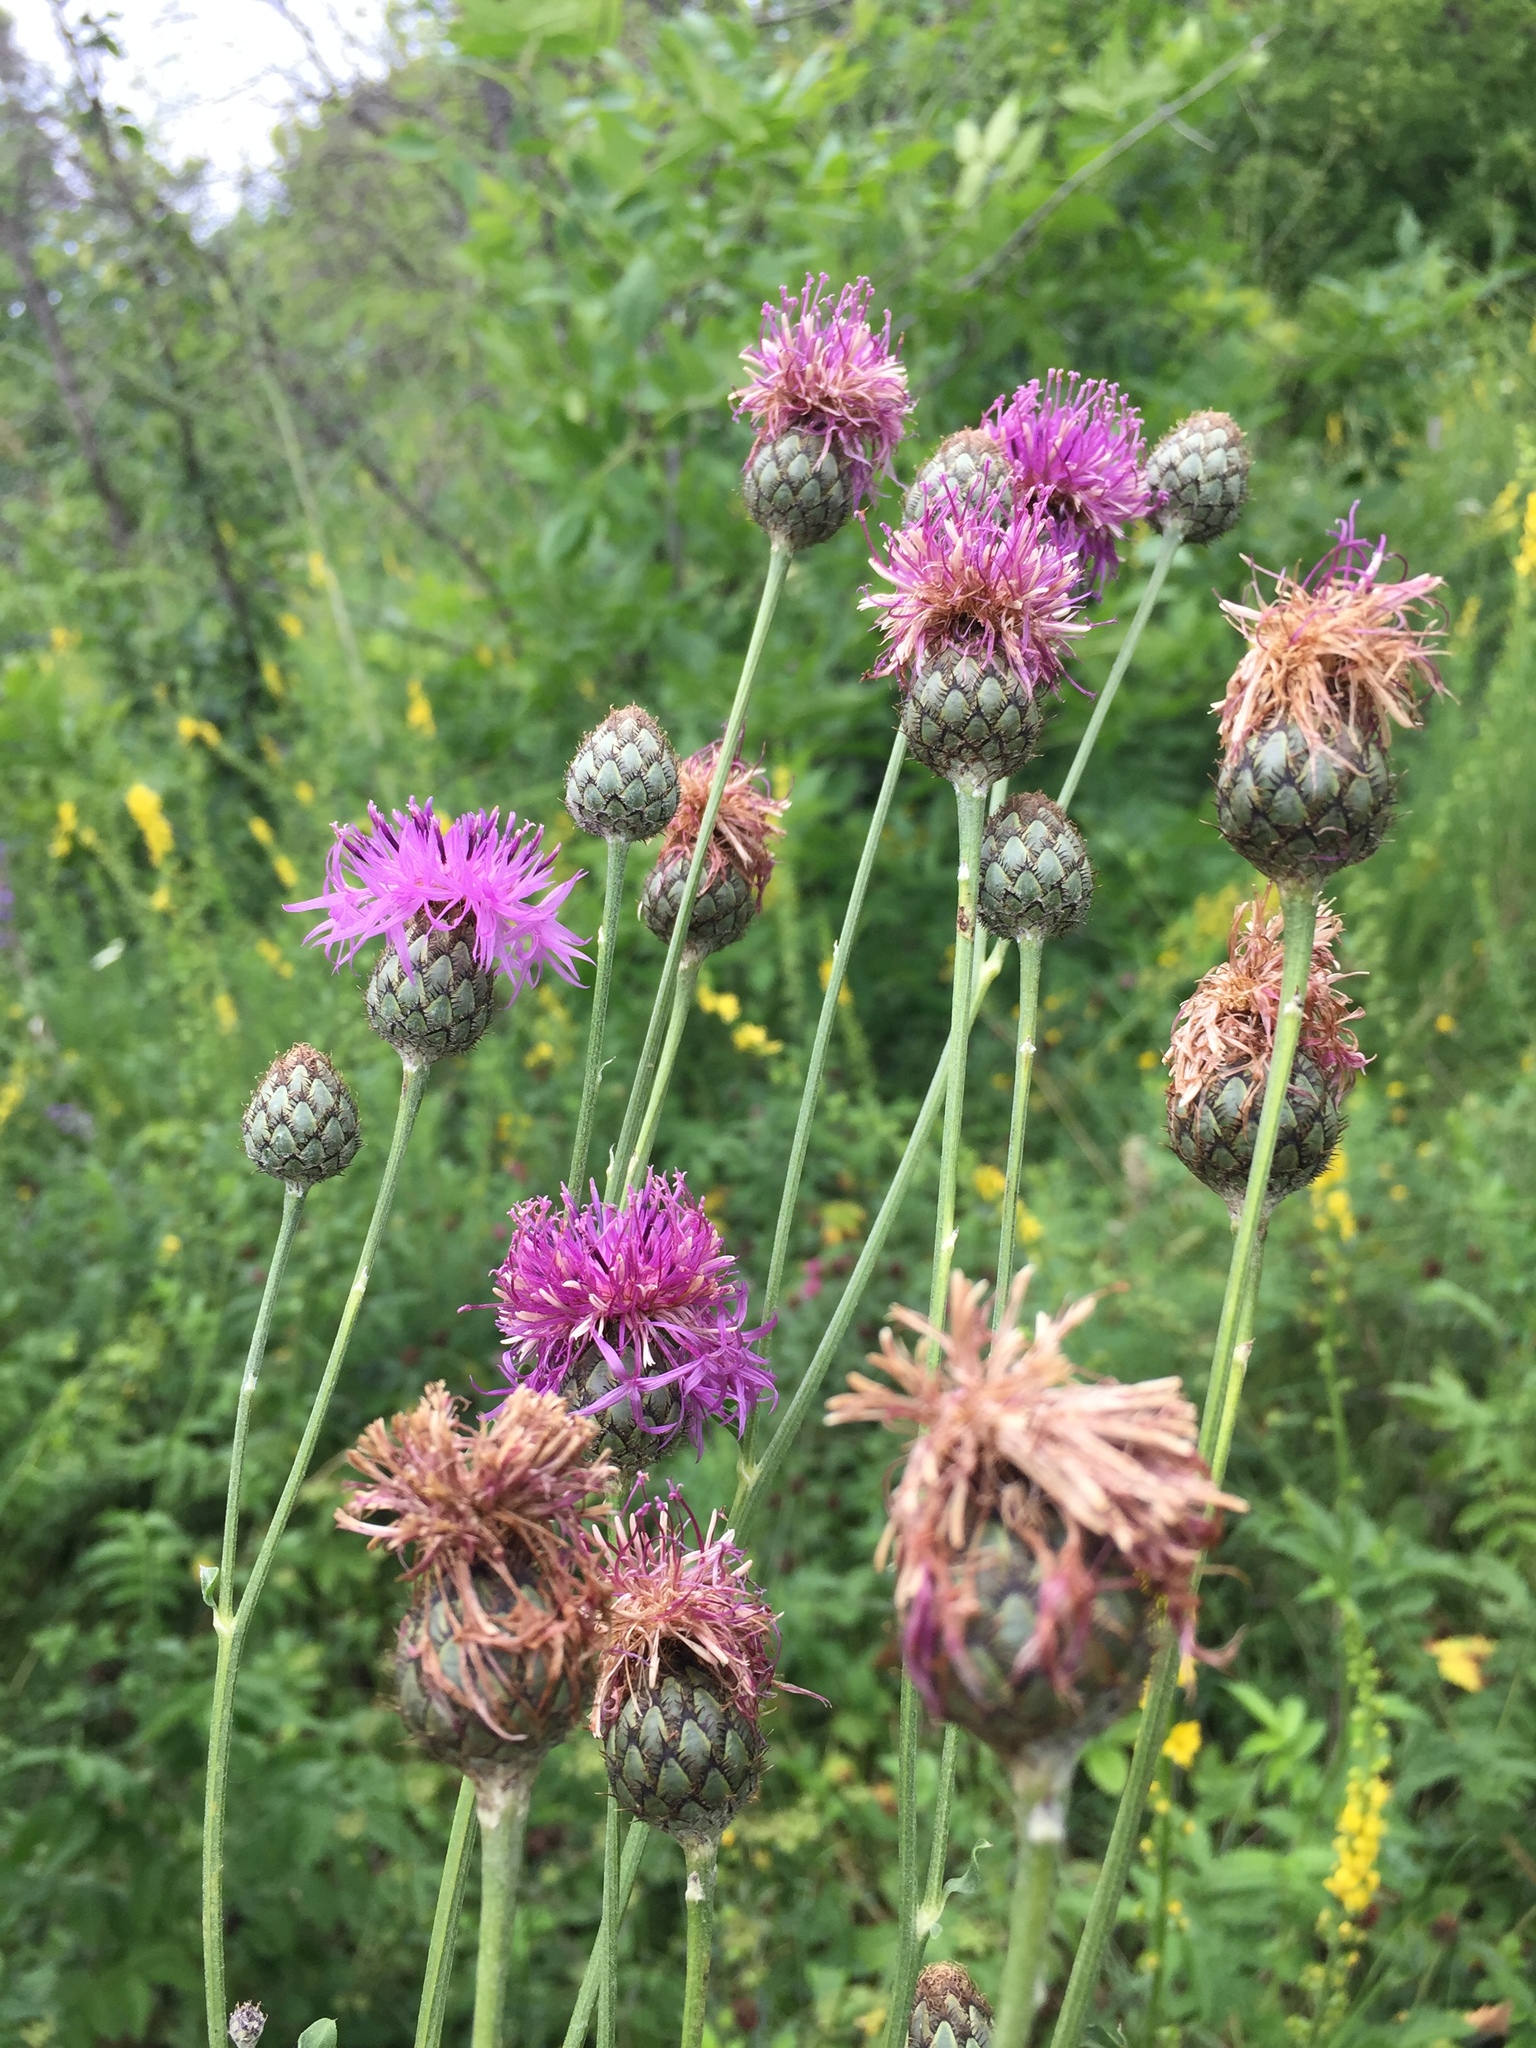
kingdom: Plantae
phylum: Tracheophyta
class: Magnoliopsida
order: Asterales
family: Asteraceae
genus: Centaurea
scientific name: Centaurea scabiosa
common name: Greater knapweed
